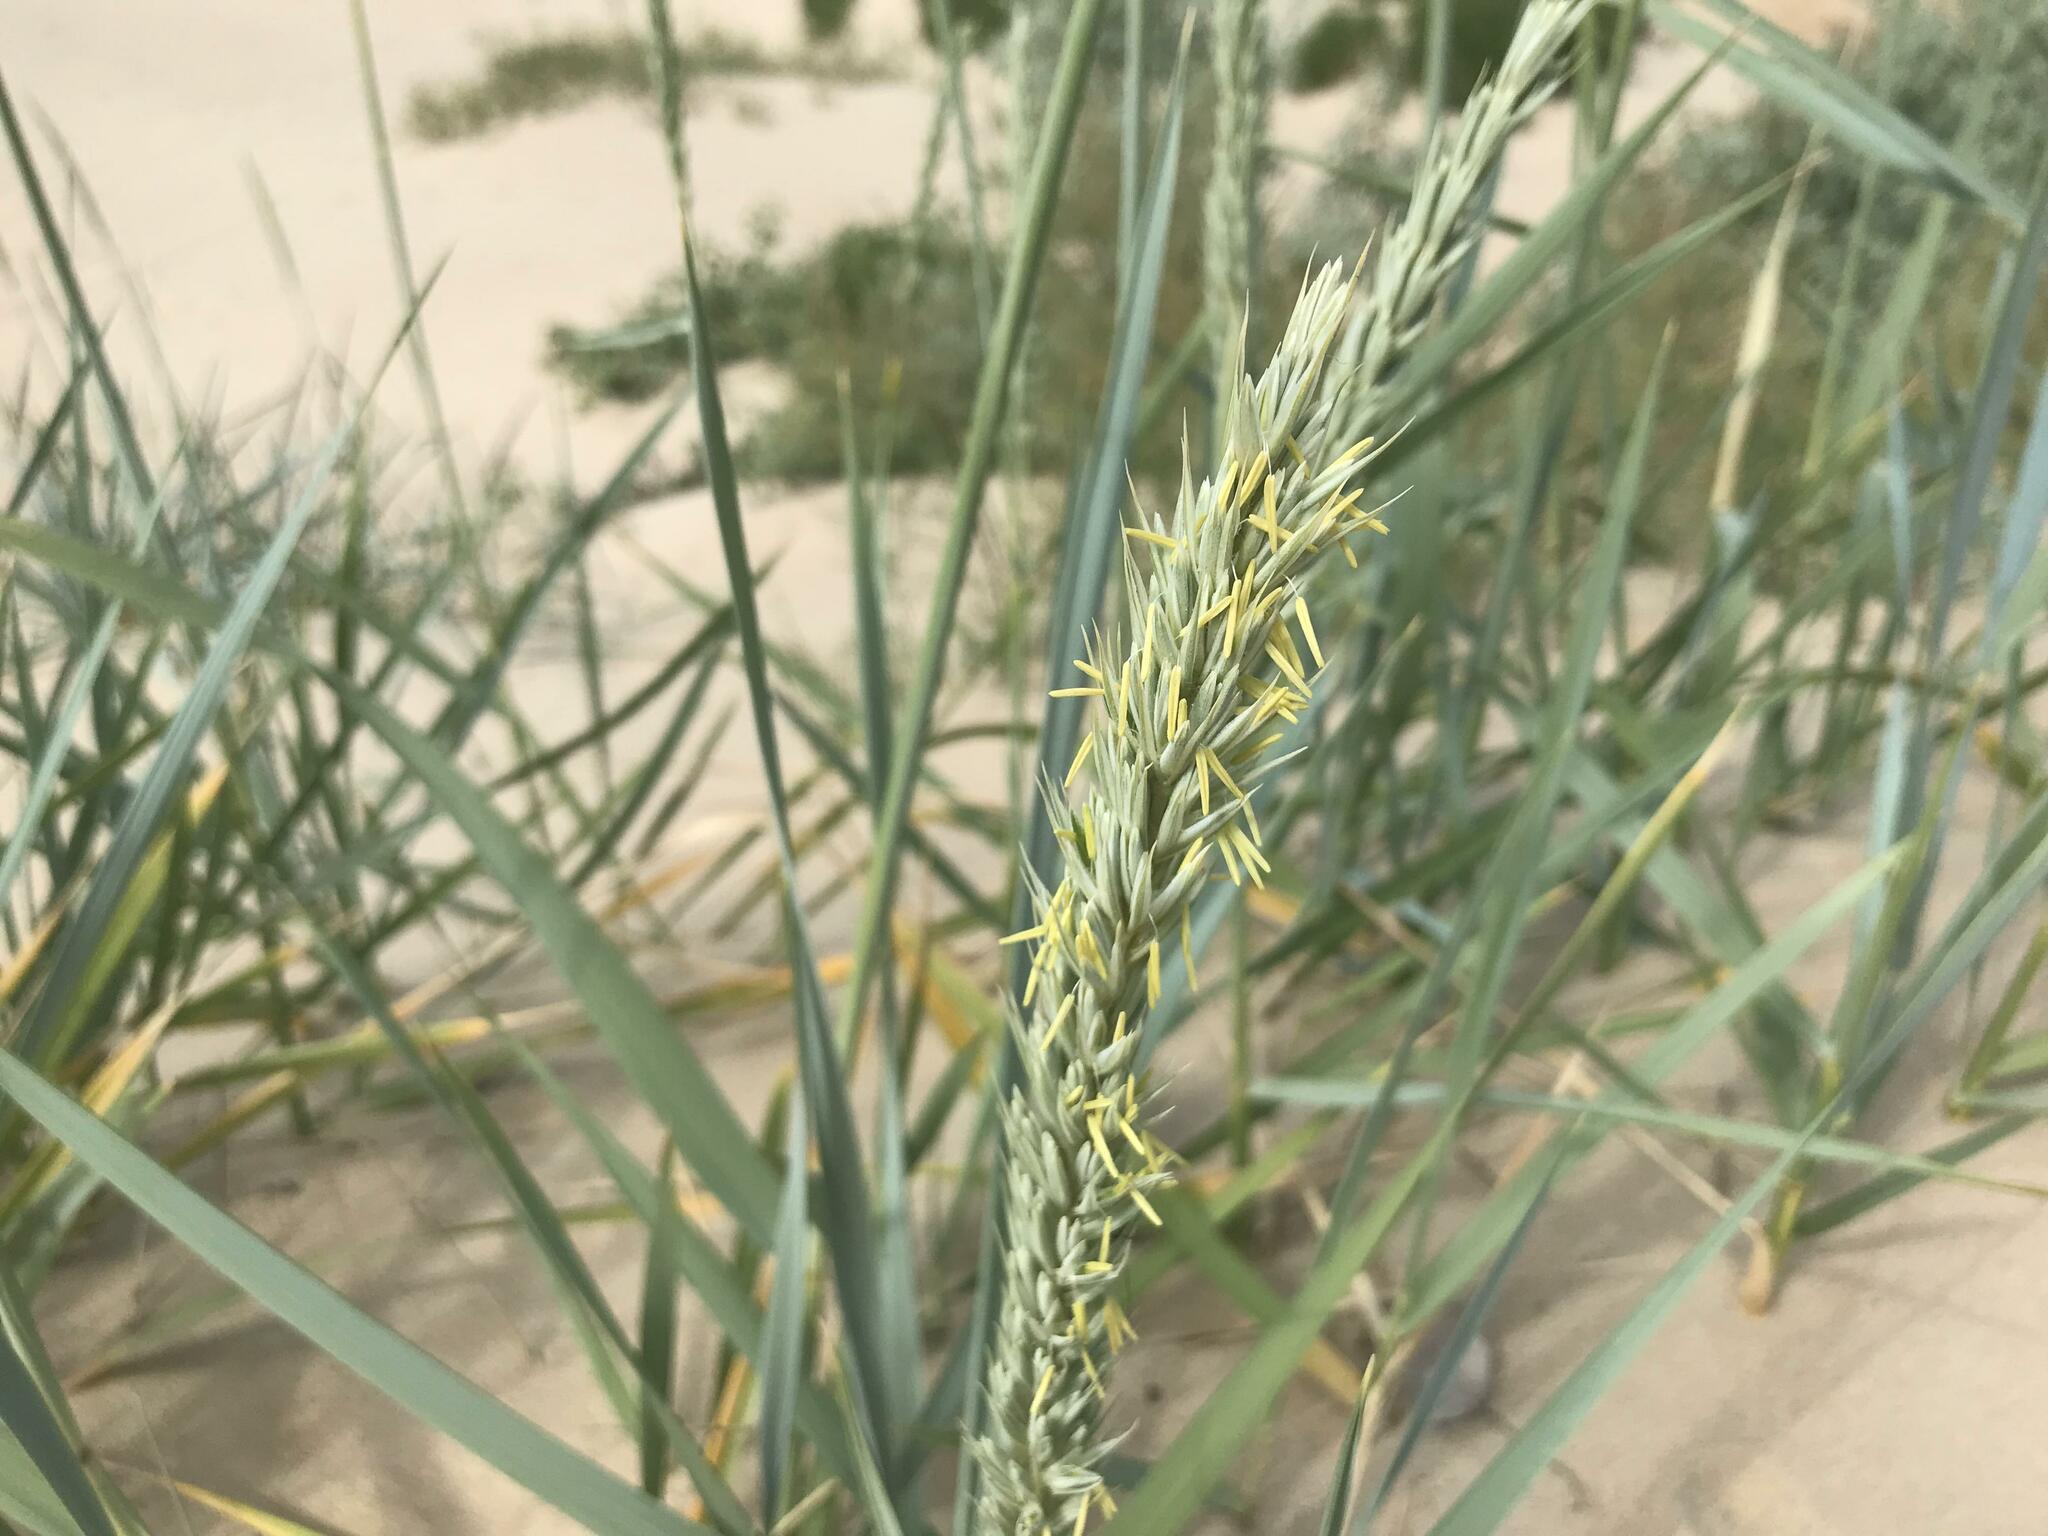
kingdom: Plantae
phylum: Tracheophyta
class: Liliopsida
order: Poales
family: Poaceae
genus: Leymus
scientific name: Leymus racemosus
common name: Mammoth wildrye
